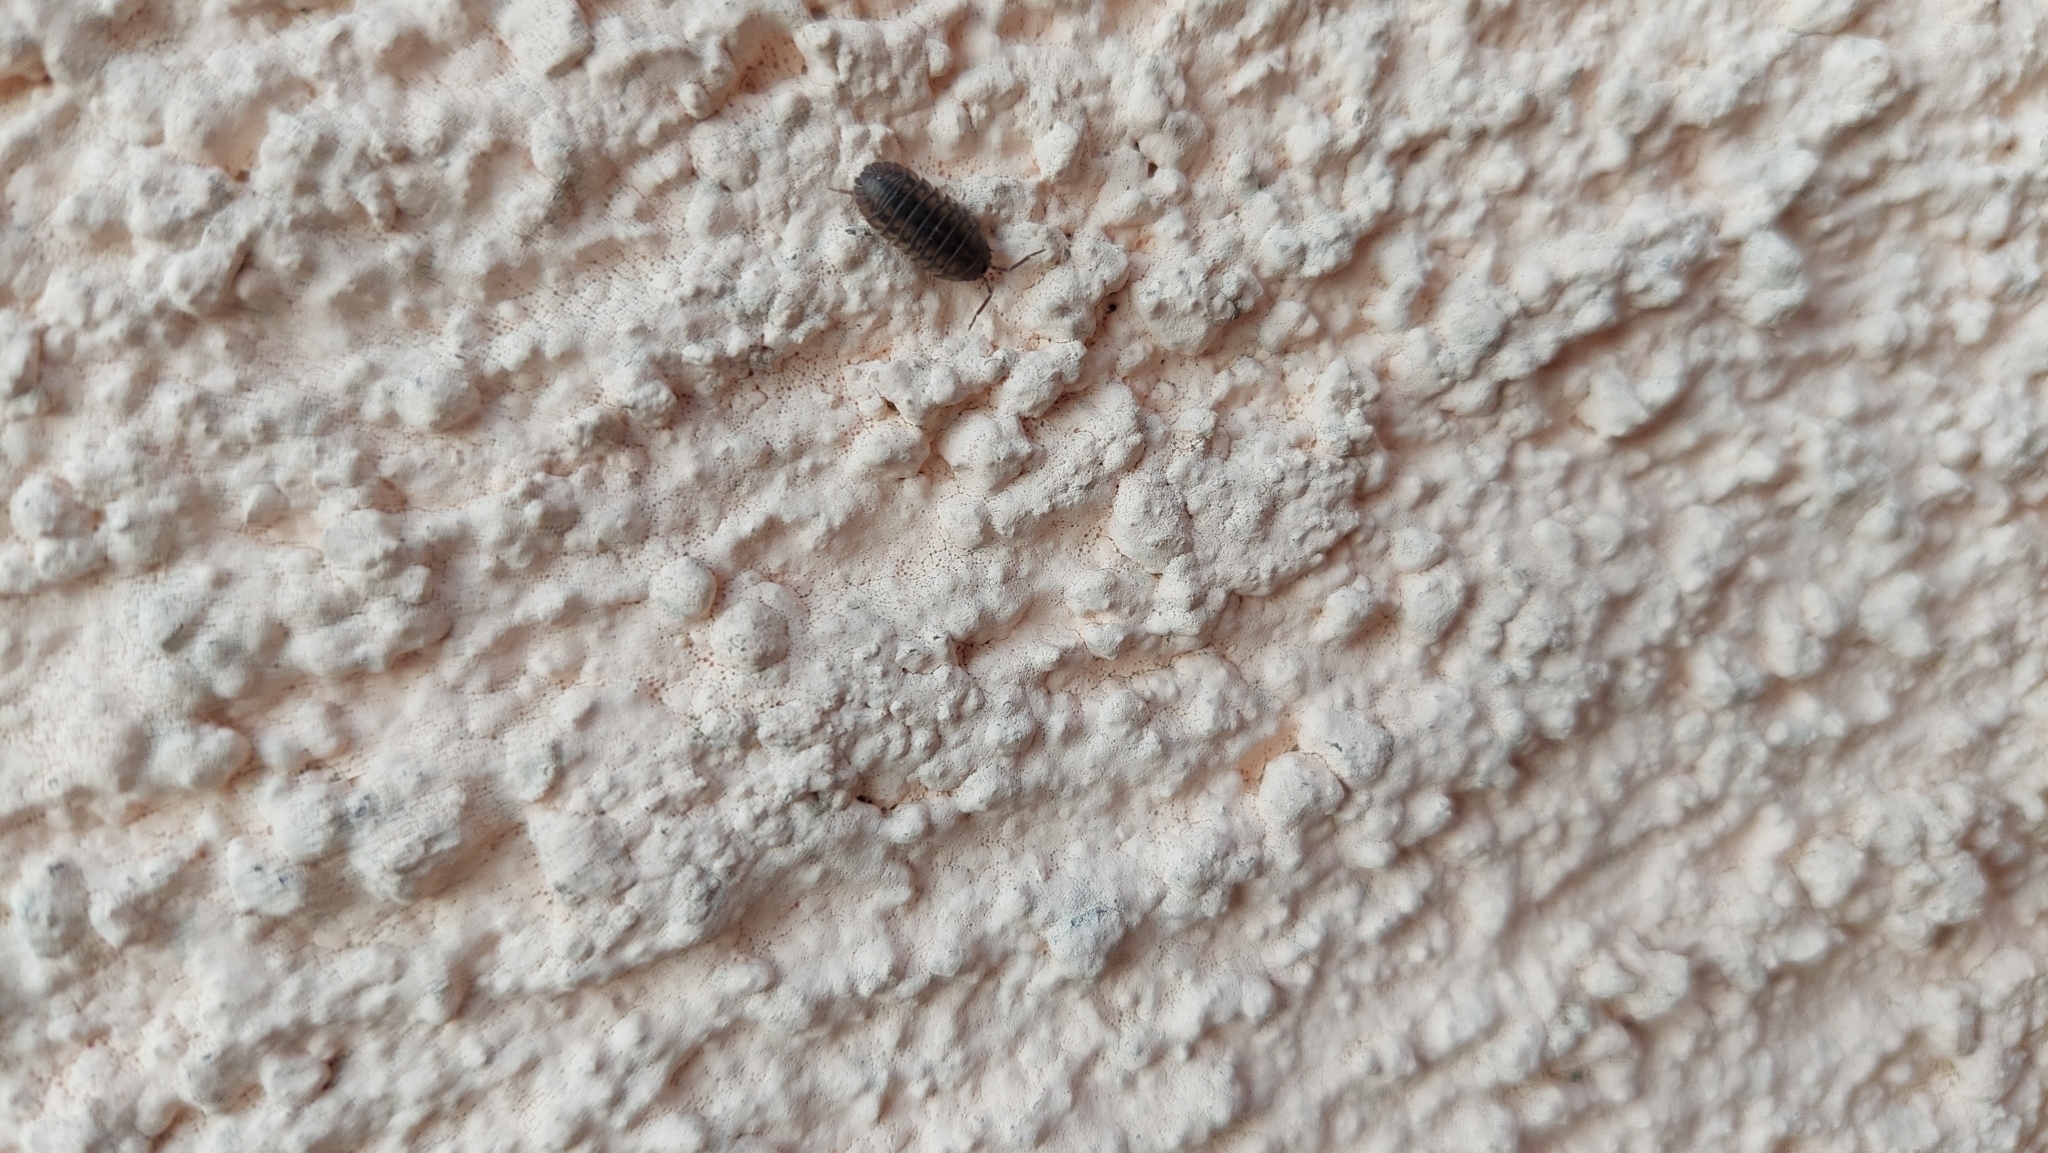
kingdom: Animalia
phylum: Arthropoda
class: Malacostraca
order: Isopoda
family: Armadillidiidae
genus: Armadillidium
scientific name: Armadillidium nasatum
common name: Isopod
